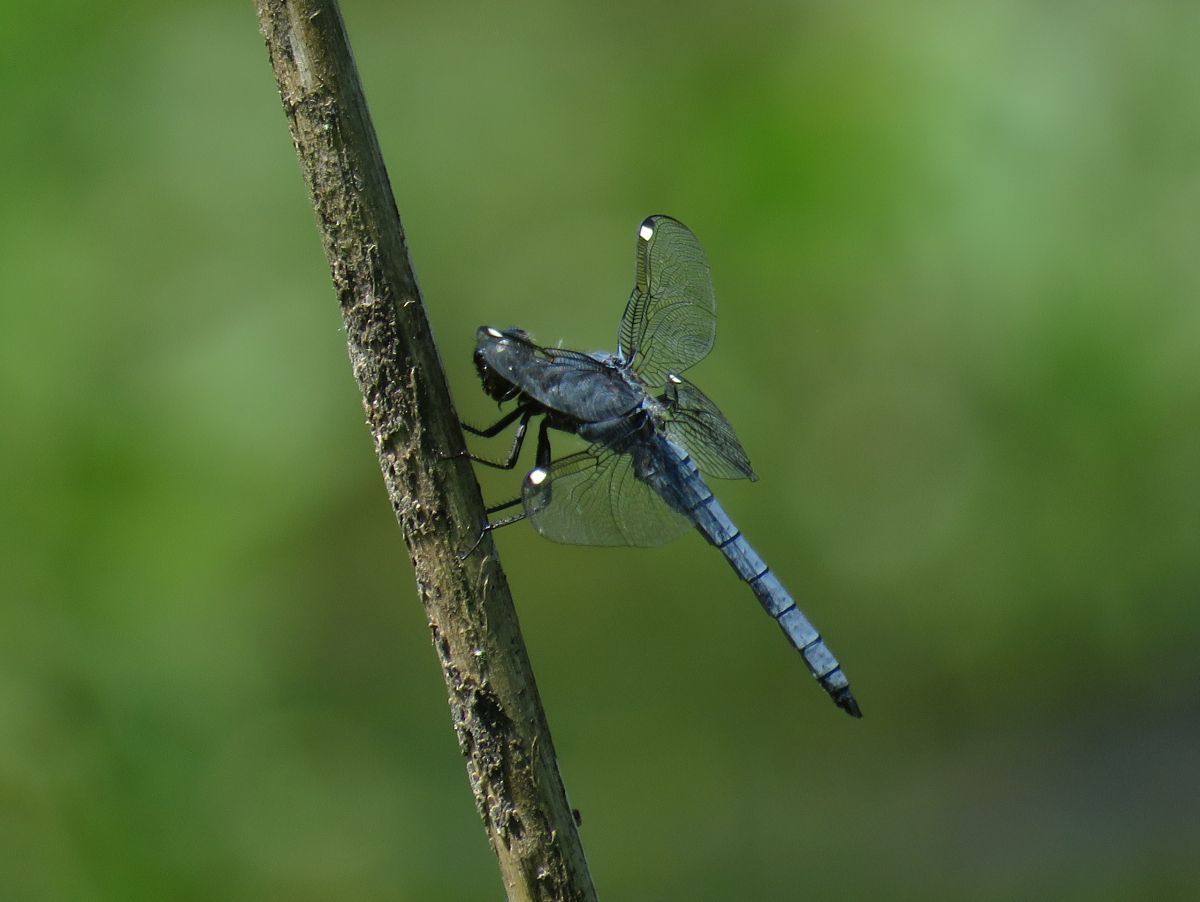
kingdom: Animalia
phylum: Arthropoda
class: Insecta
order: Odonata
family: Libellulidae
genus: Libellula
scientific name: Libellula cyanea
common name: Spangled skimmer
